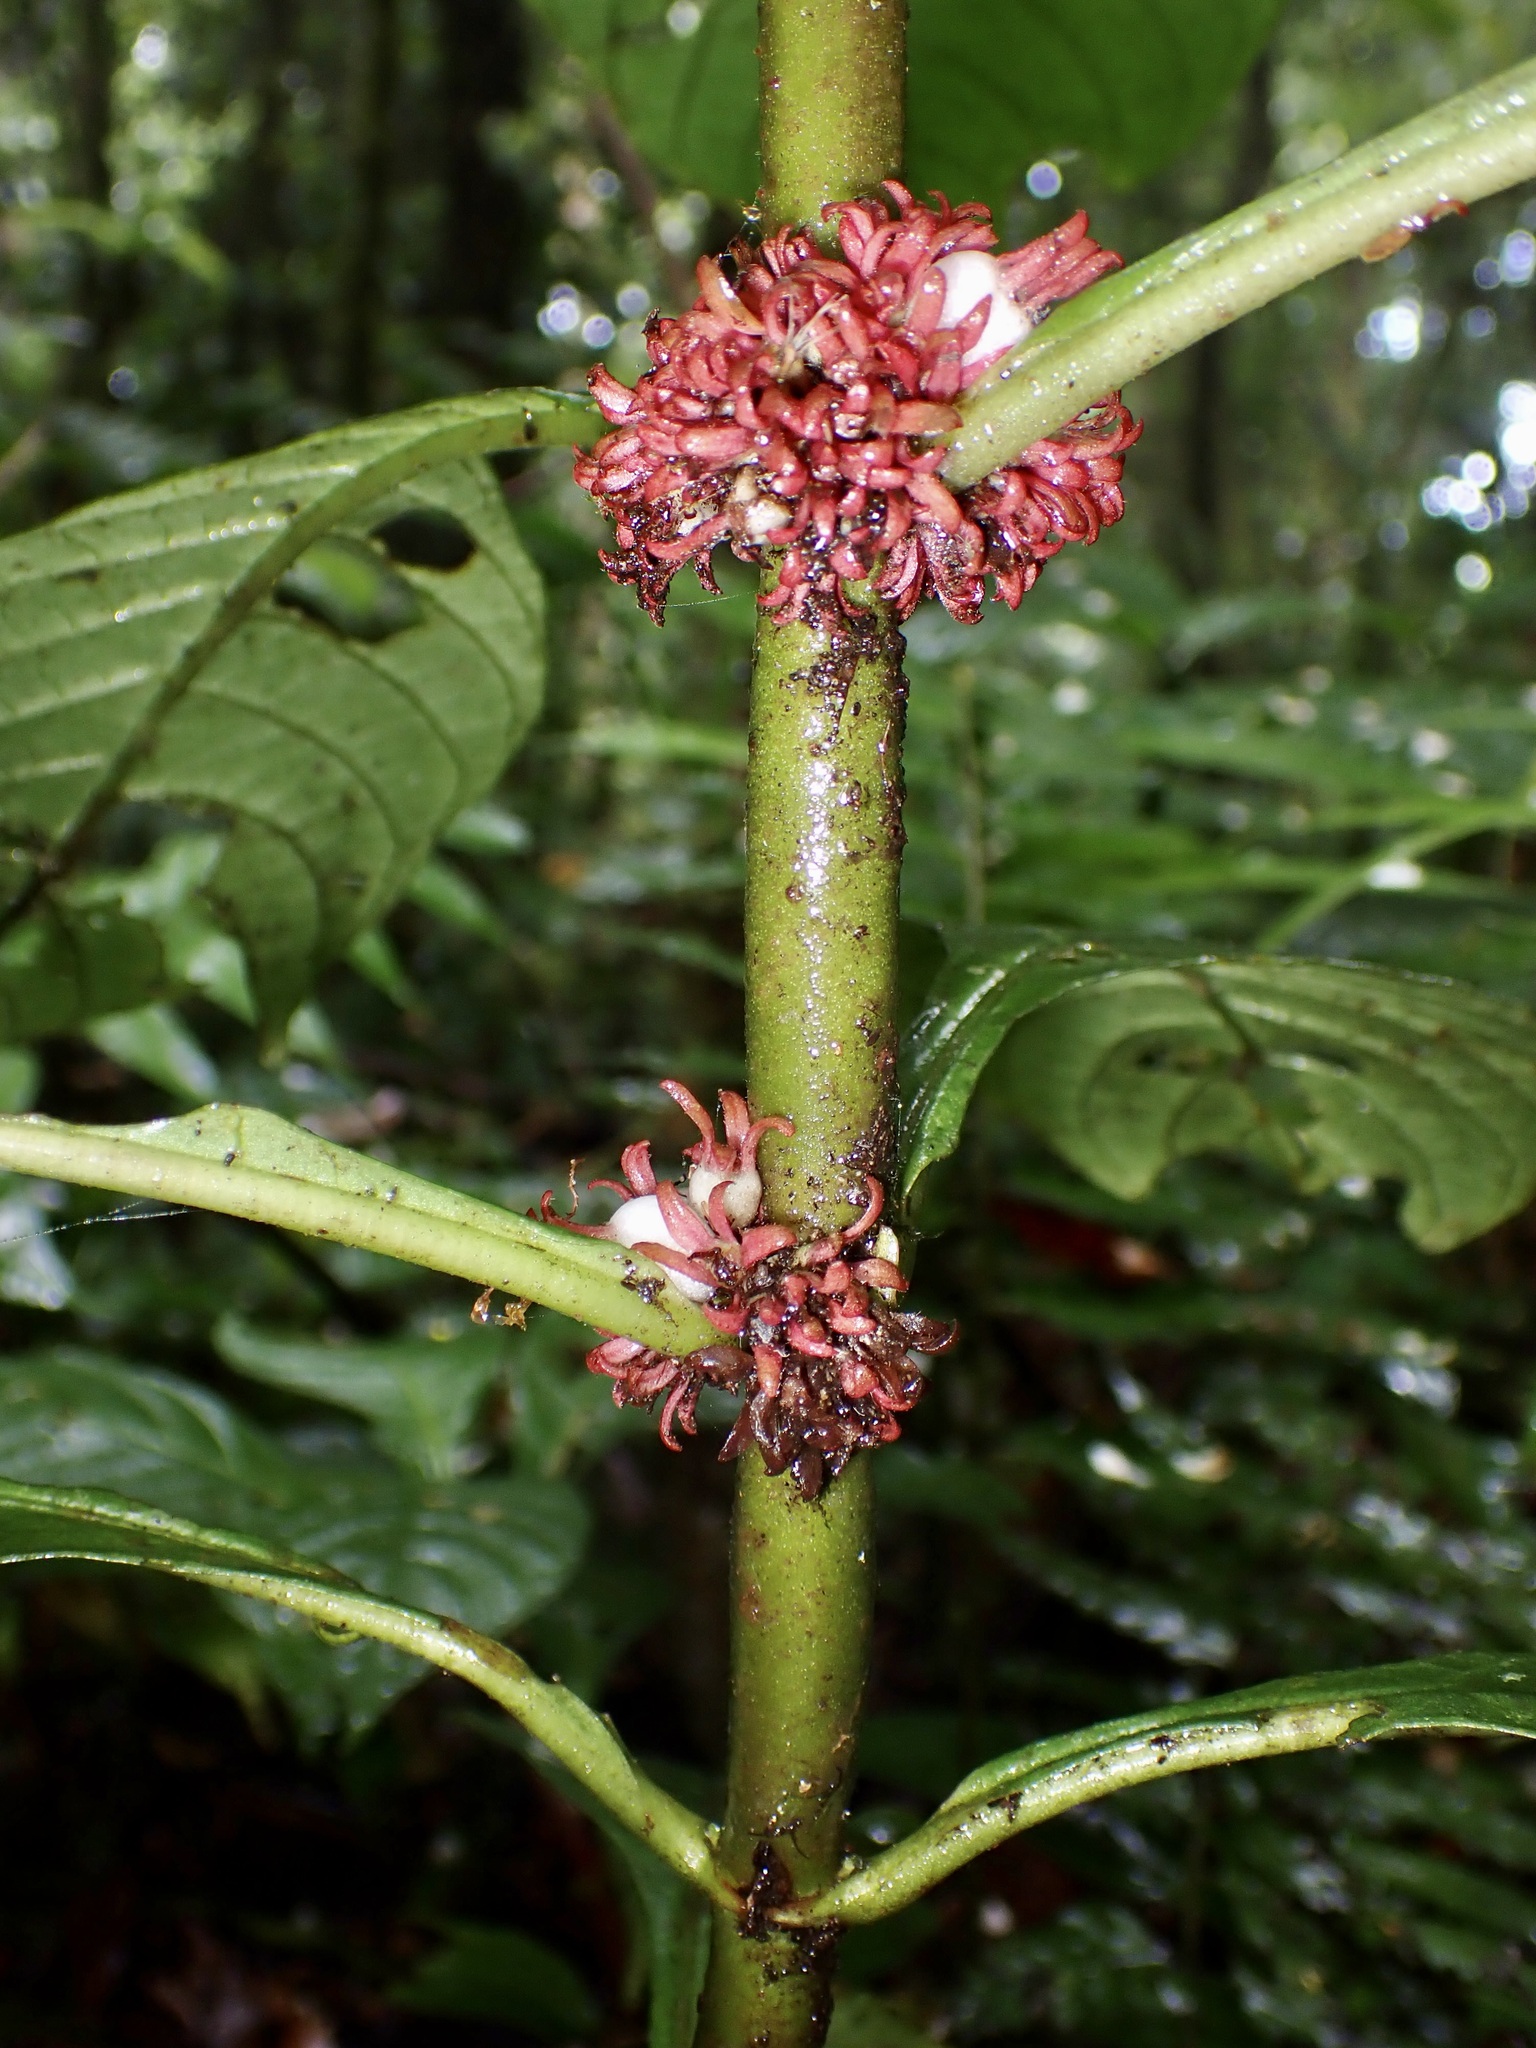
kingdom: Plantae
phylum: Tracheophyta
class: Magnoliopsida
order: Gentianales
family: Rubiaceae
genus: Hoffmannia
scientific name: Hoffmannia congesta
